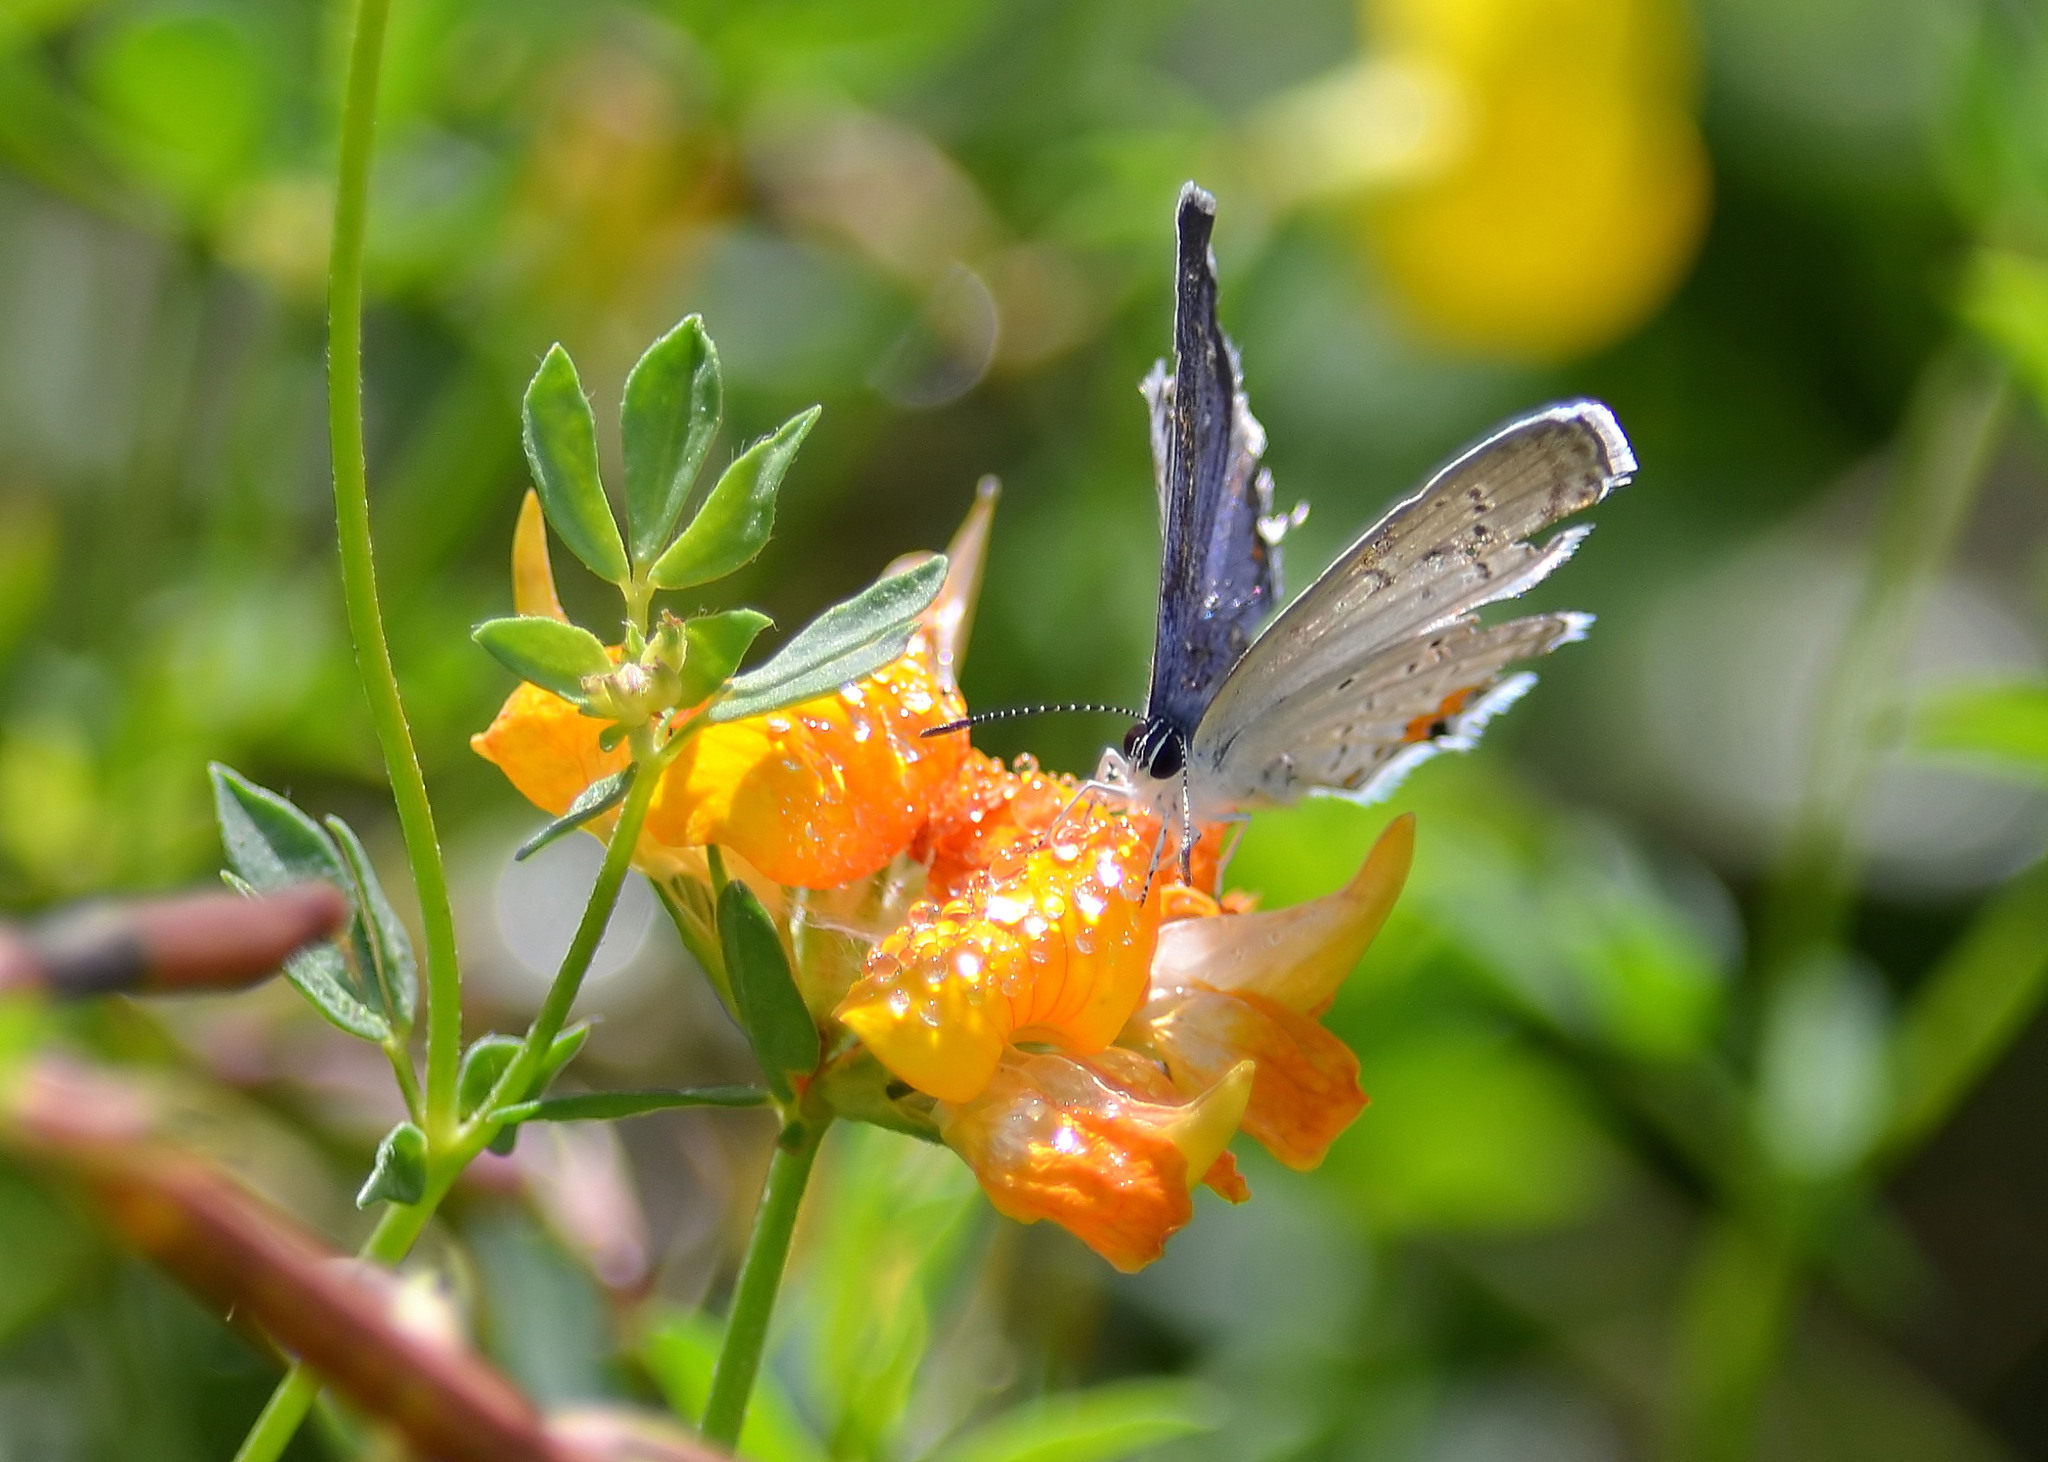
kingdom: Animalia
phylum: Arthropoda
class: Insecta
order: Lepidoptera
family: Lycaenidae
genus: Elkalyce
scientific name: Elkalyce comyntas
